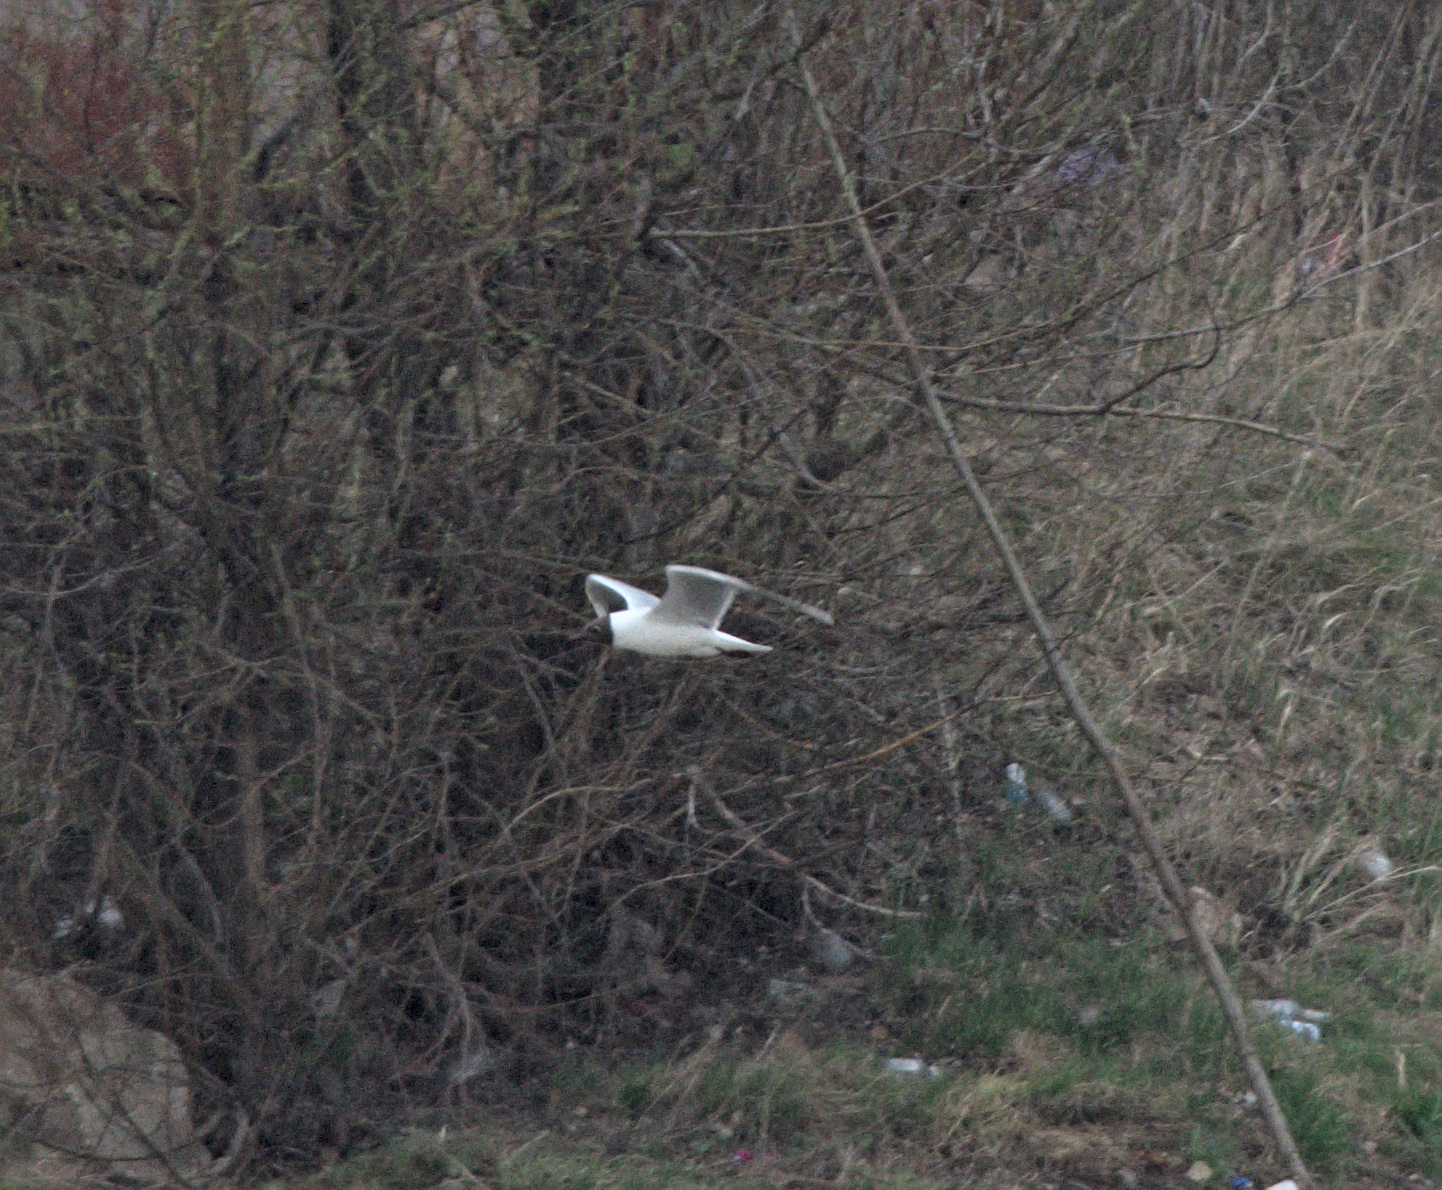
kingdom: Animalia
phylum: Chordata
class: Aves
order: Charadriiformes
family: Laridae
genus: Chroicocephalus
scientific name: Chroicocephalus ridibundus
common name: Black-headed gull
